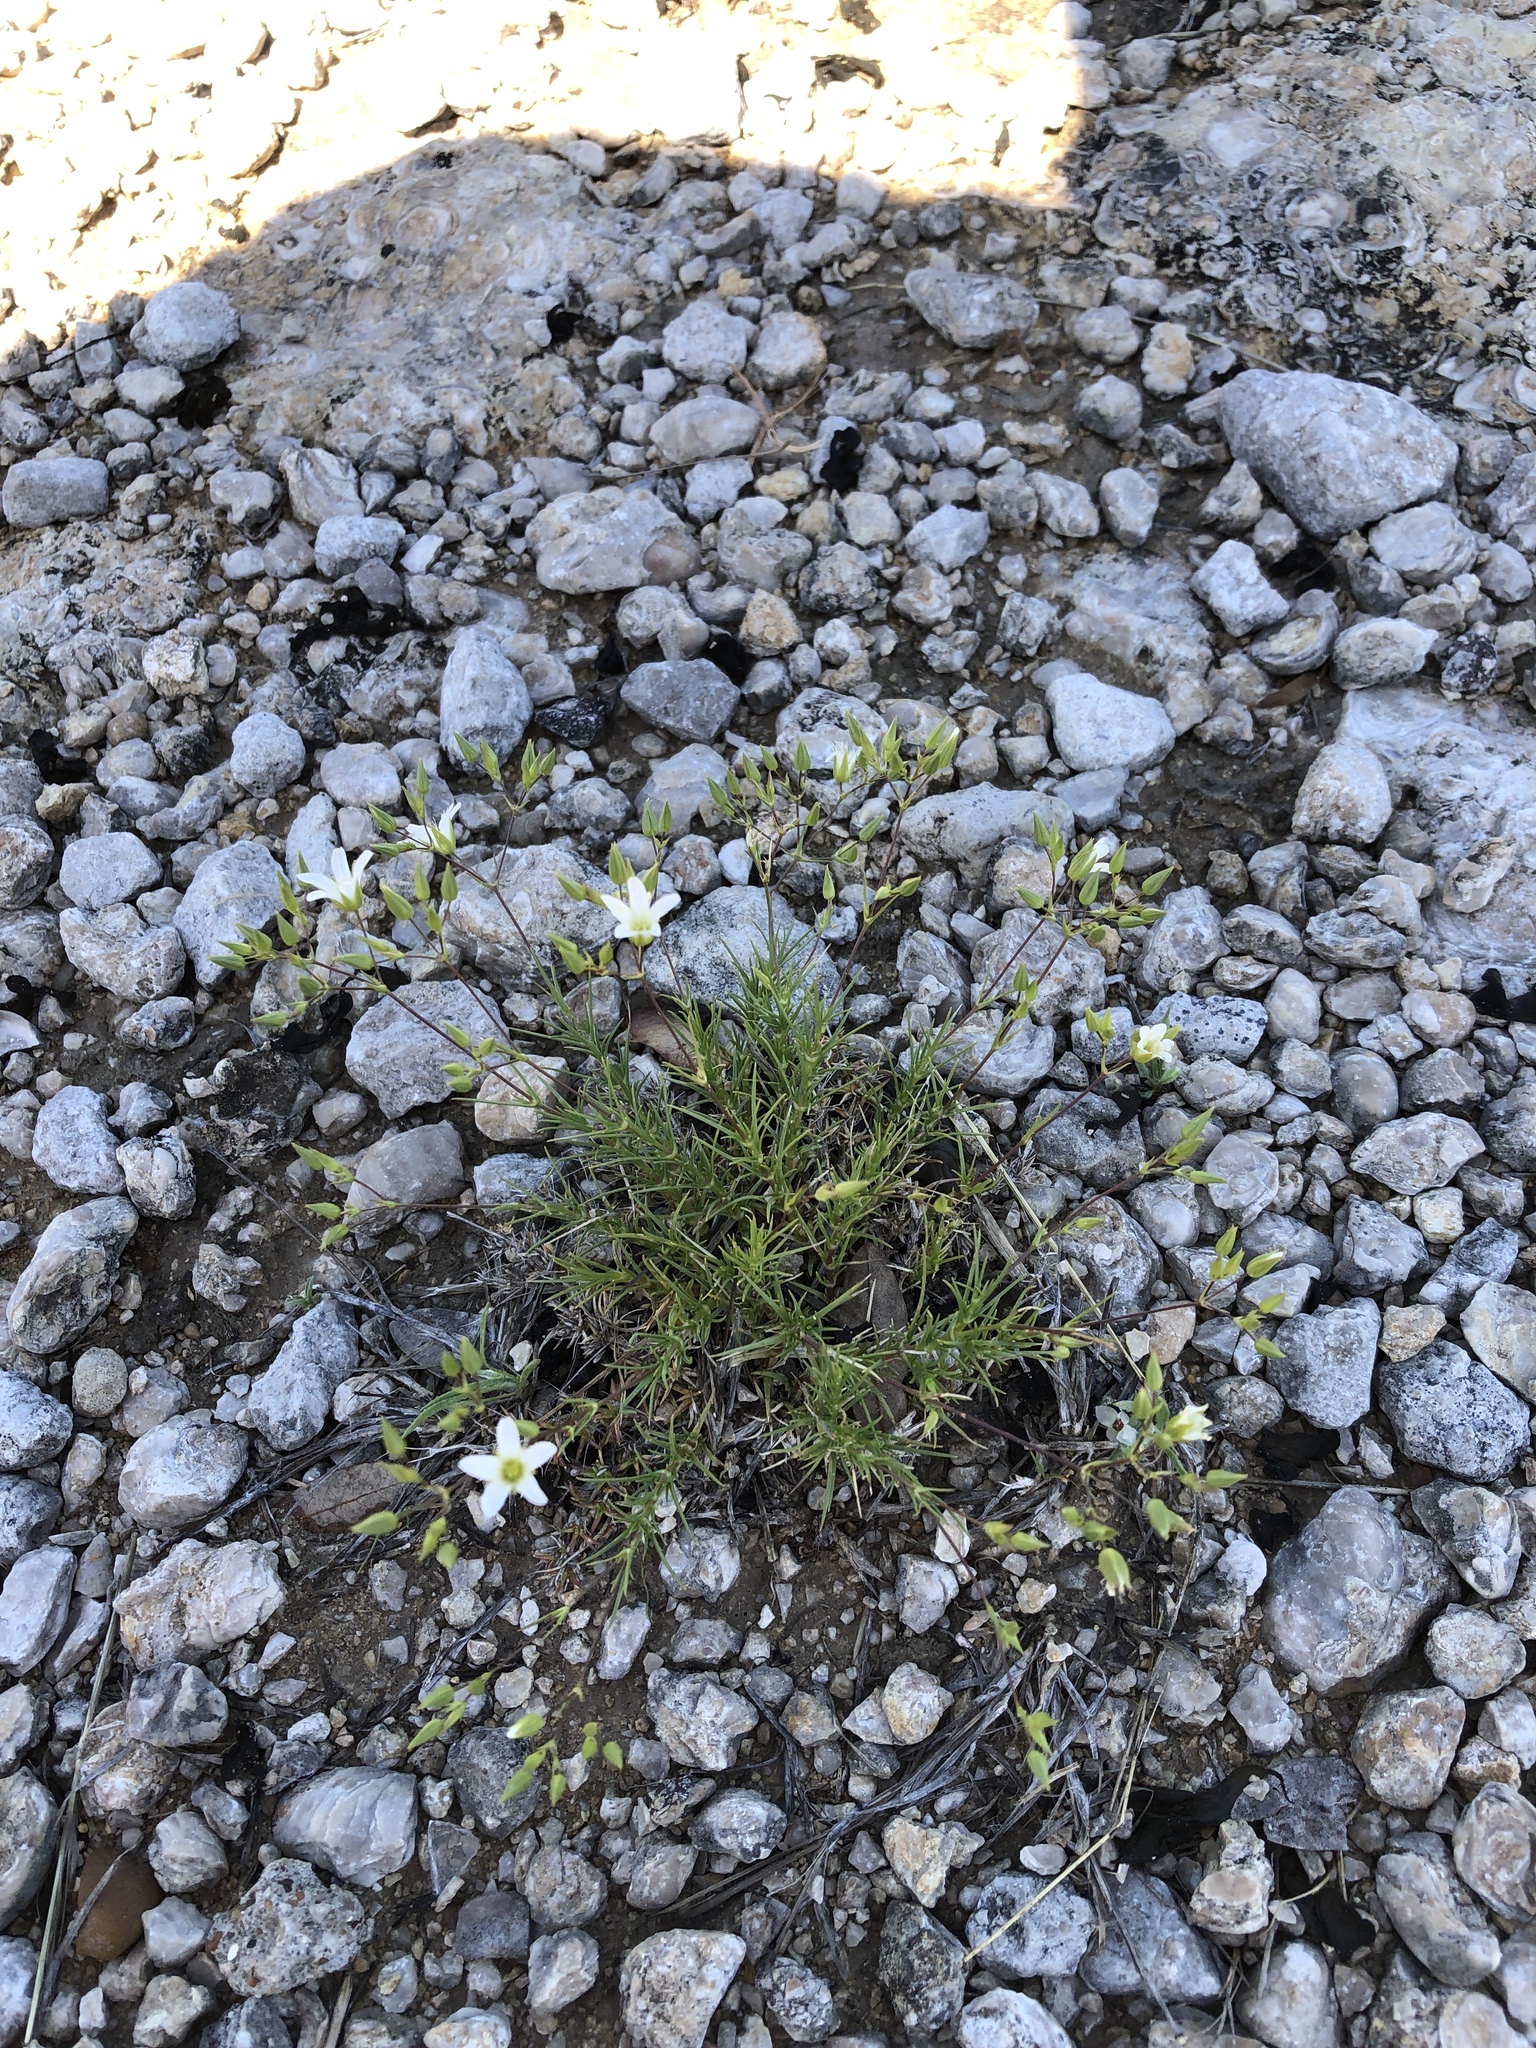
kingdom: Plantae
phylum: Tracheophyta
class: Magnoliopsida
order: Caryophyllales
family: Caryophyllaceae
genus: Sabulina
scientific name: Sabulina michauxii
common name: Michaux's stitchwort
